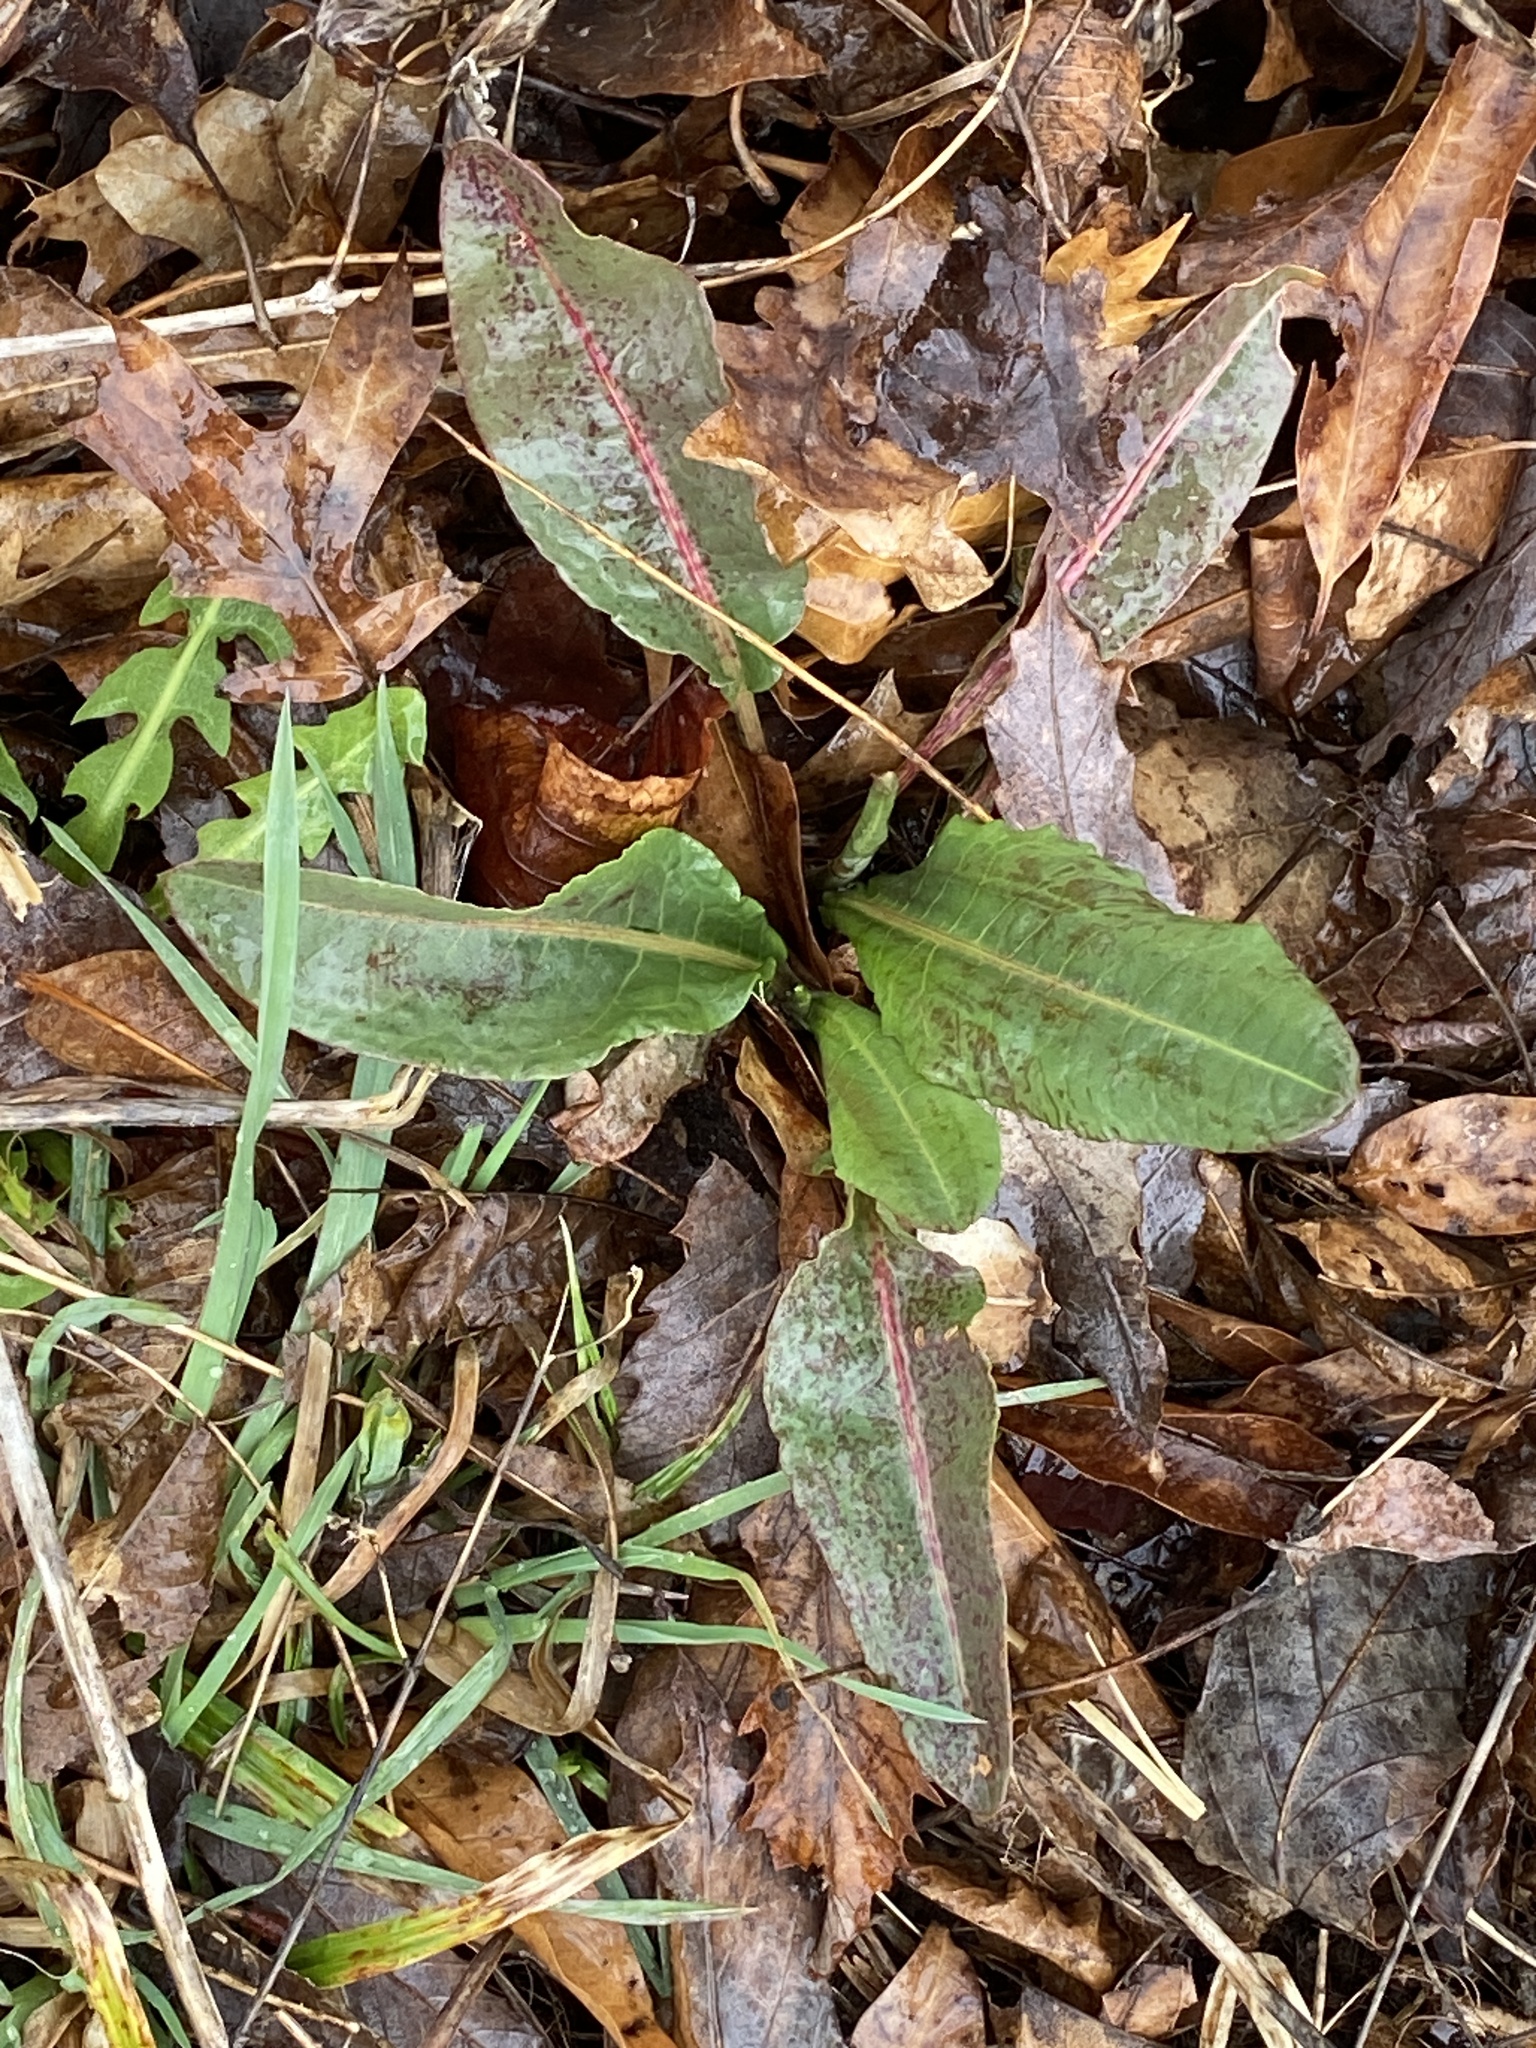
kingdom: Plantae
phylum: Tracheophyta
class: Magnoliopsida
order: Caryophyllales
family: Polygonaceae
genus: Rumex
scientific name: Rumex crispus
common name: Curled dock
